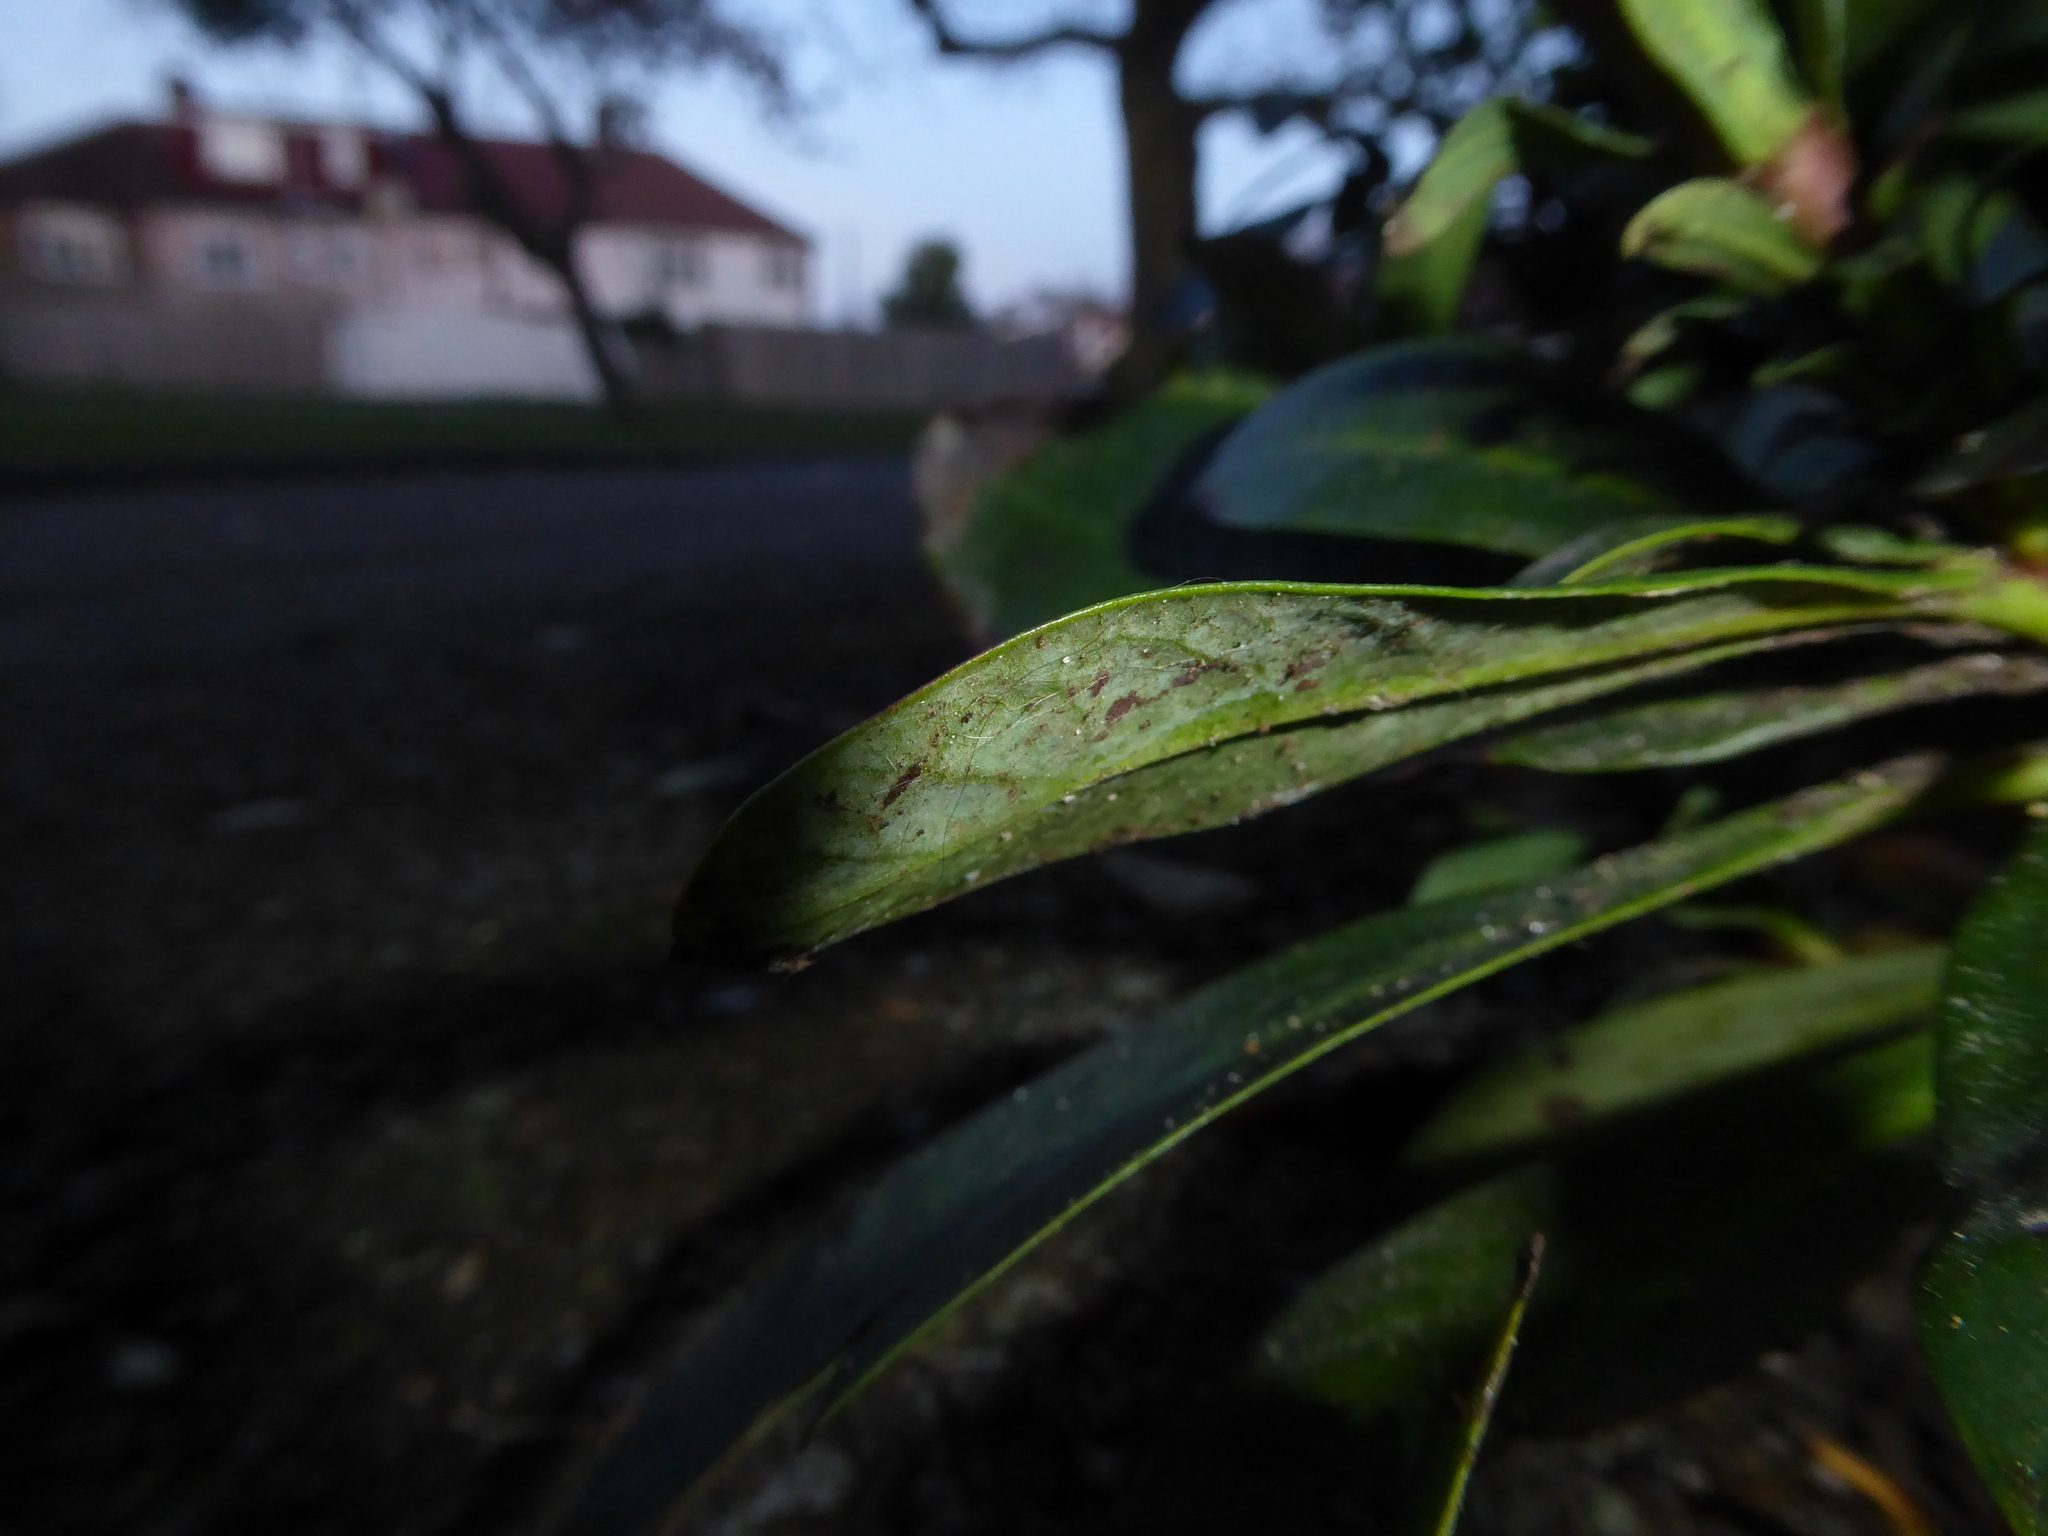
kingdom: Plantae
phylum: Tracheophyta
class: Magnoliopsida
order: Malpighiales
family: Euphorbiaceae
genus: Euphorbia
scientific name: Euphorbia amygdaloides
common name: Wood spurge
